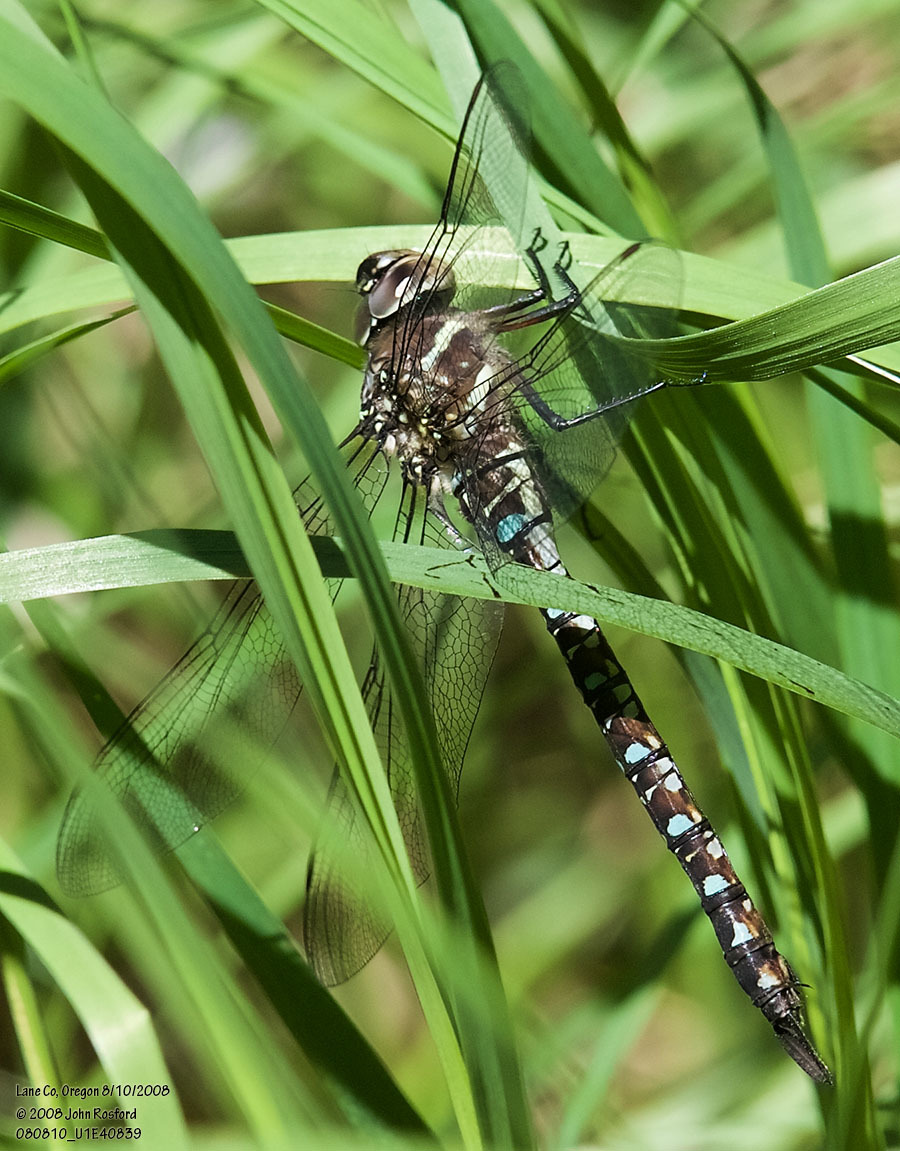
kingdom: Animalia
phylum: Arthropoda
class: Insecta
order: Odonata
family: Aeshnidae
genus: Aeshna
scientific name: Aeshna palmata
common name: Paddle-tailed darner
